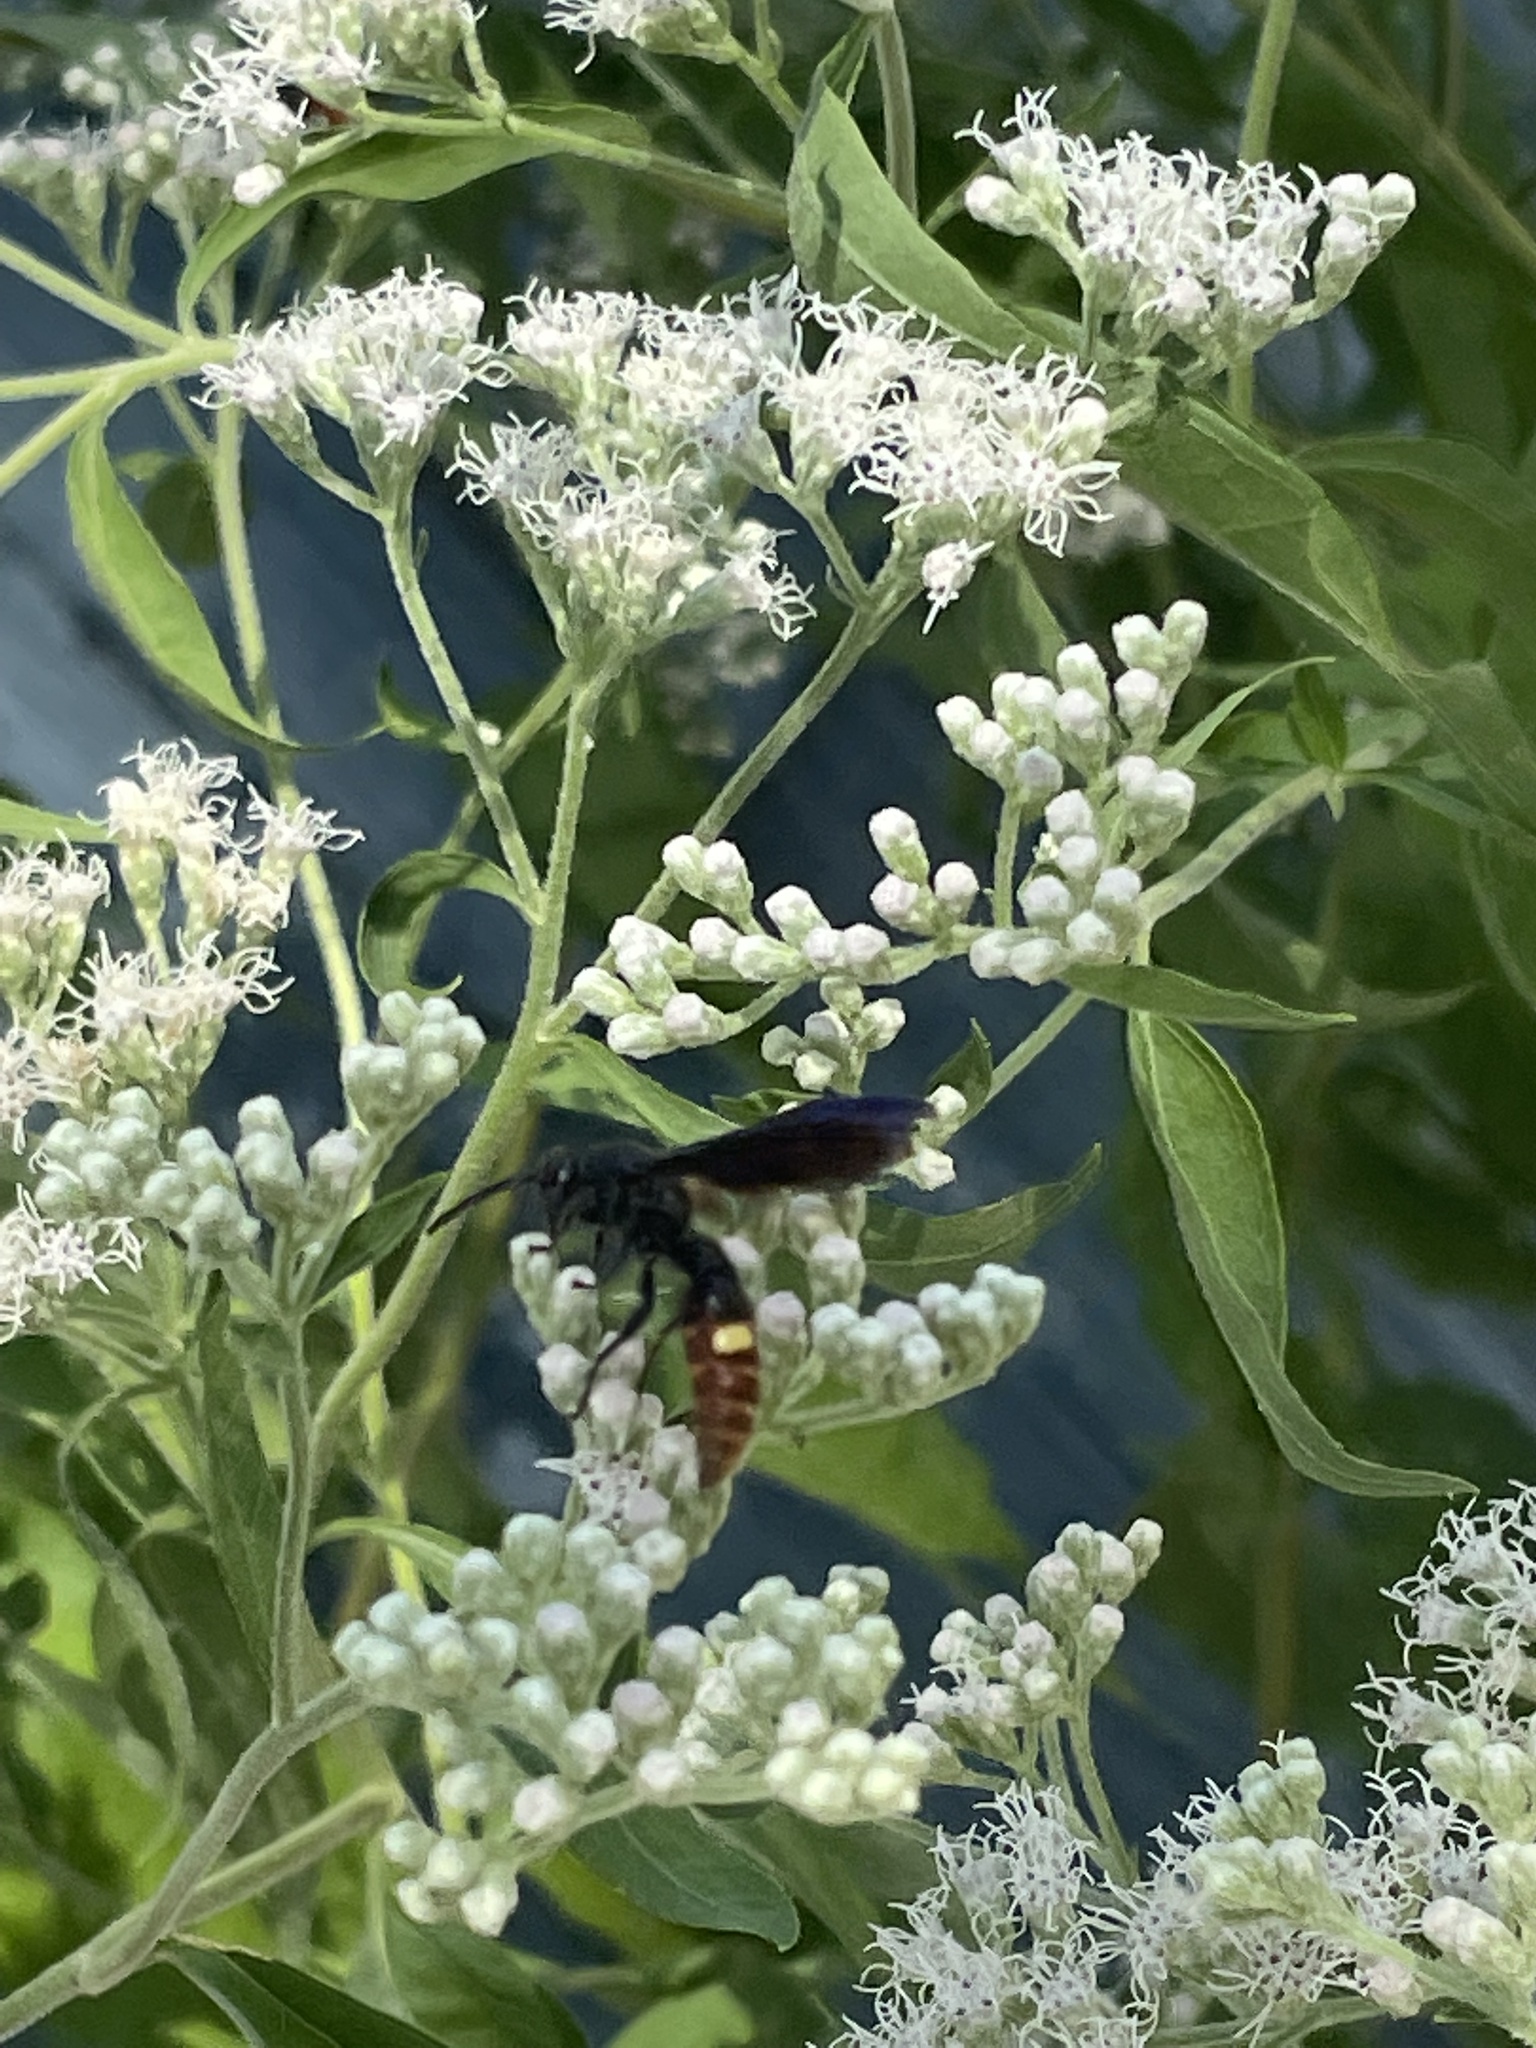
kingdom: Animalia
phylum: Arthropoda
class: Insecta
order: Hymenoptera
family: Scoliidae
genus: Scolia
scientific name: Scolia dubia
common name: Blue-winged scoliid wasp
